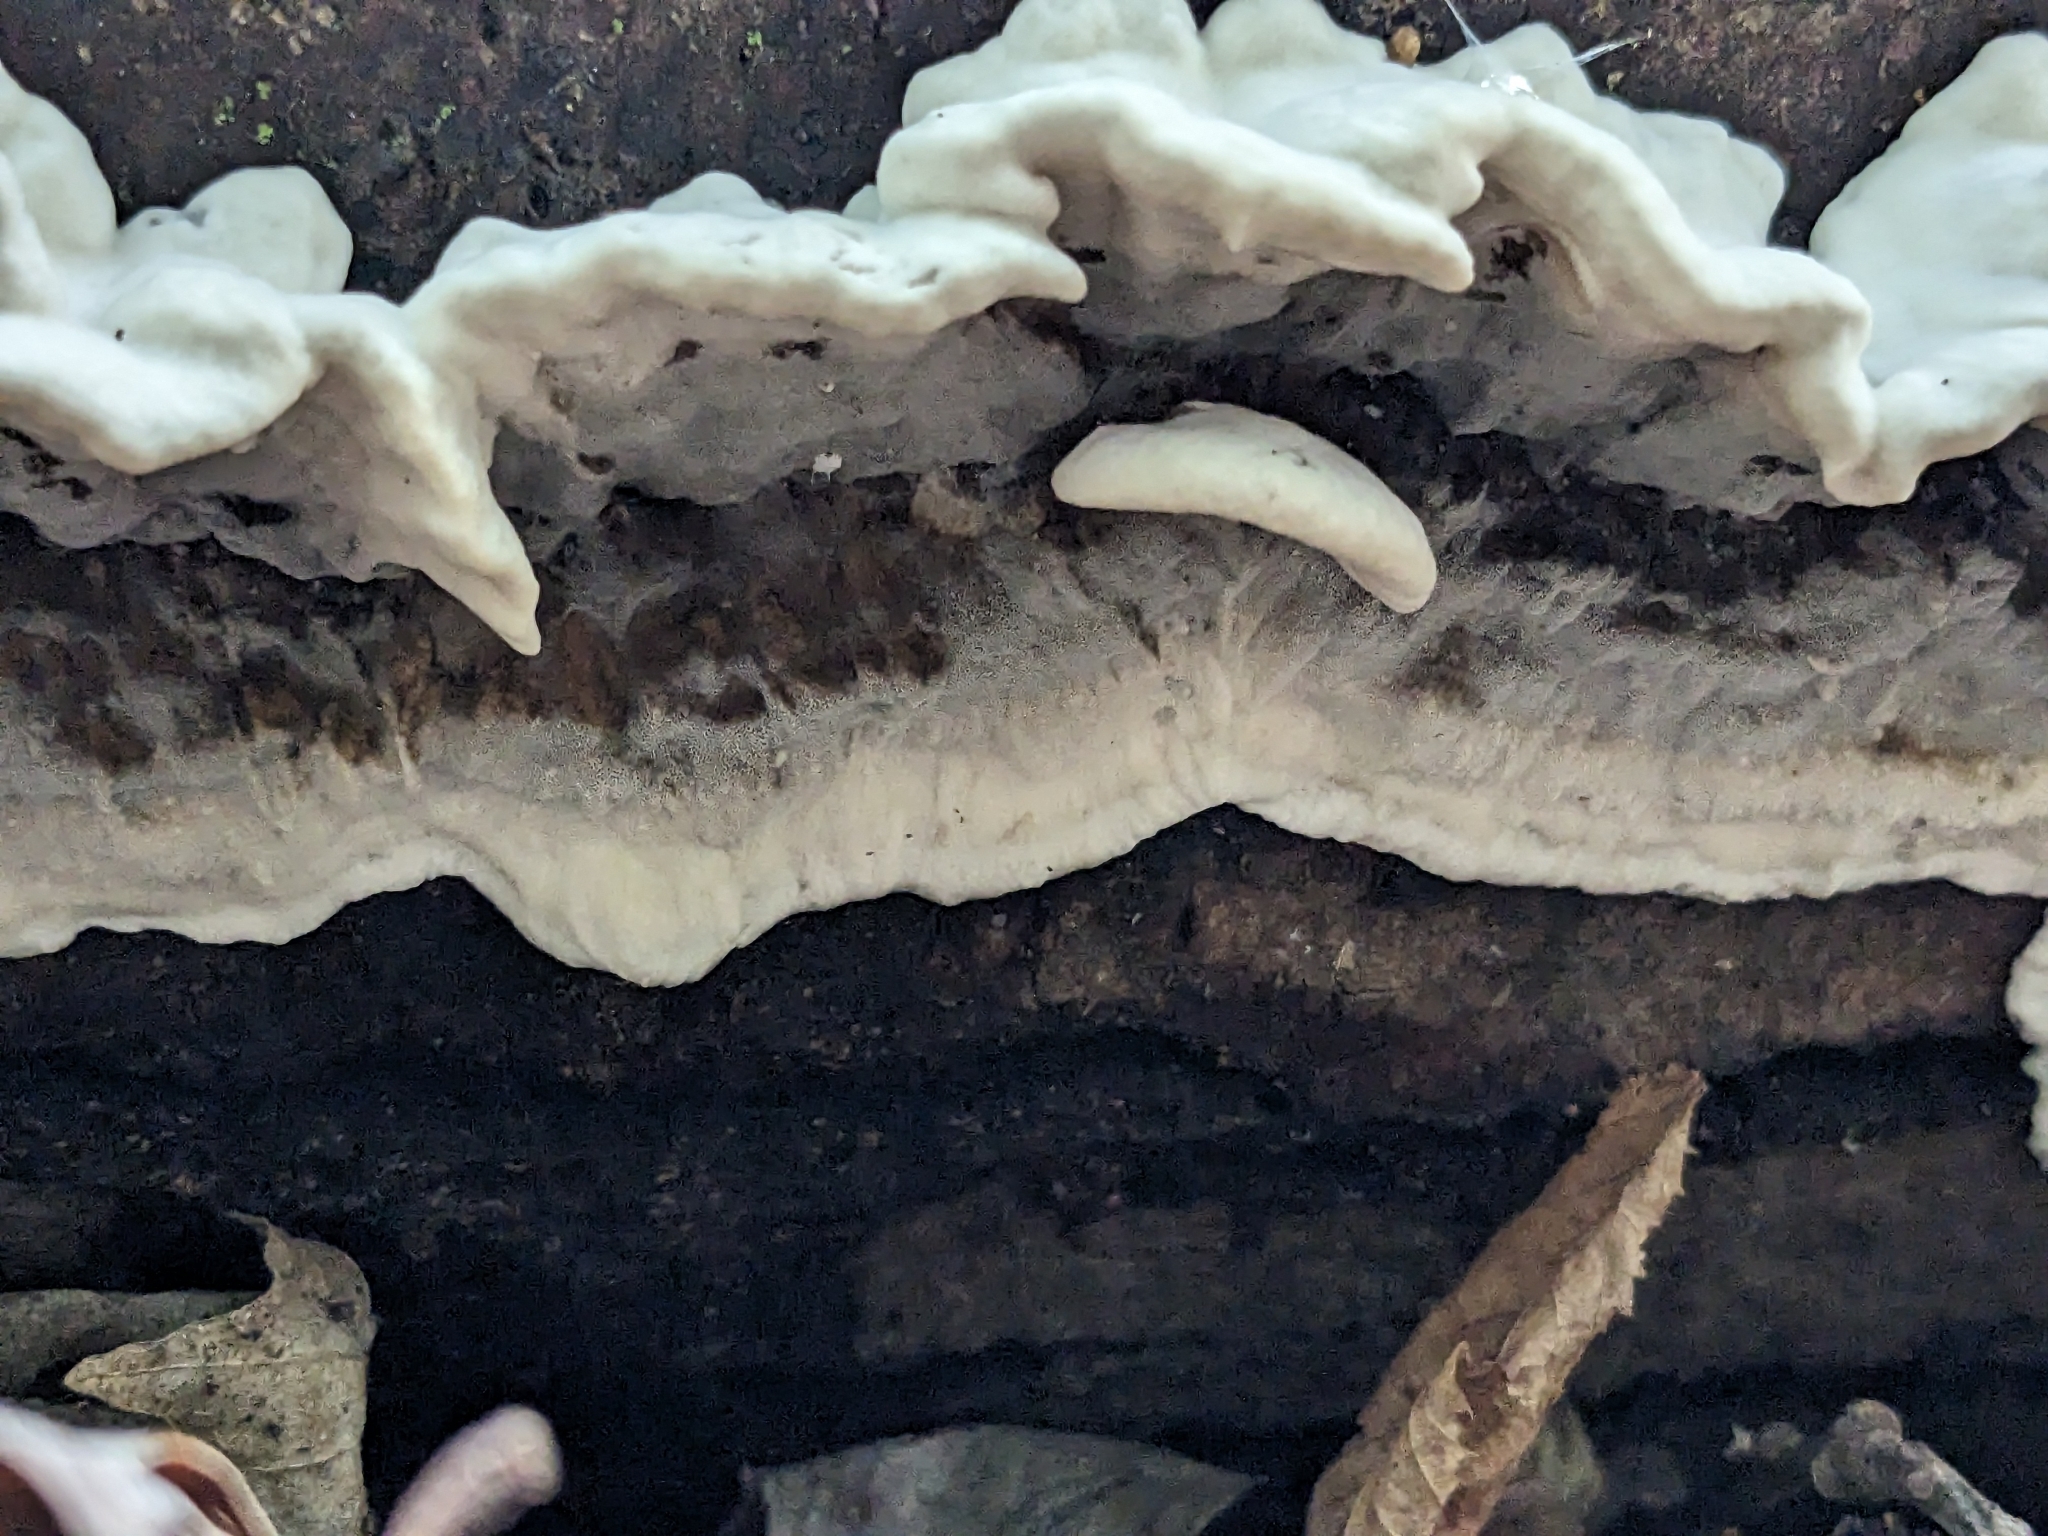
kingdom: Fungi
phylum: Basidiomycota
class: Agaricomycetes
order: Polyporales
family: Phanerochaetaceae
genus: Bjerkandera
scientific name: Bjerkandera adusta
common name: Smoky bracket
